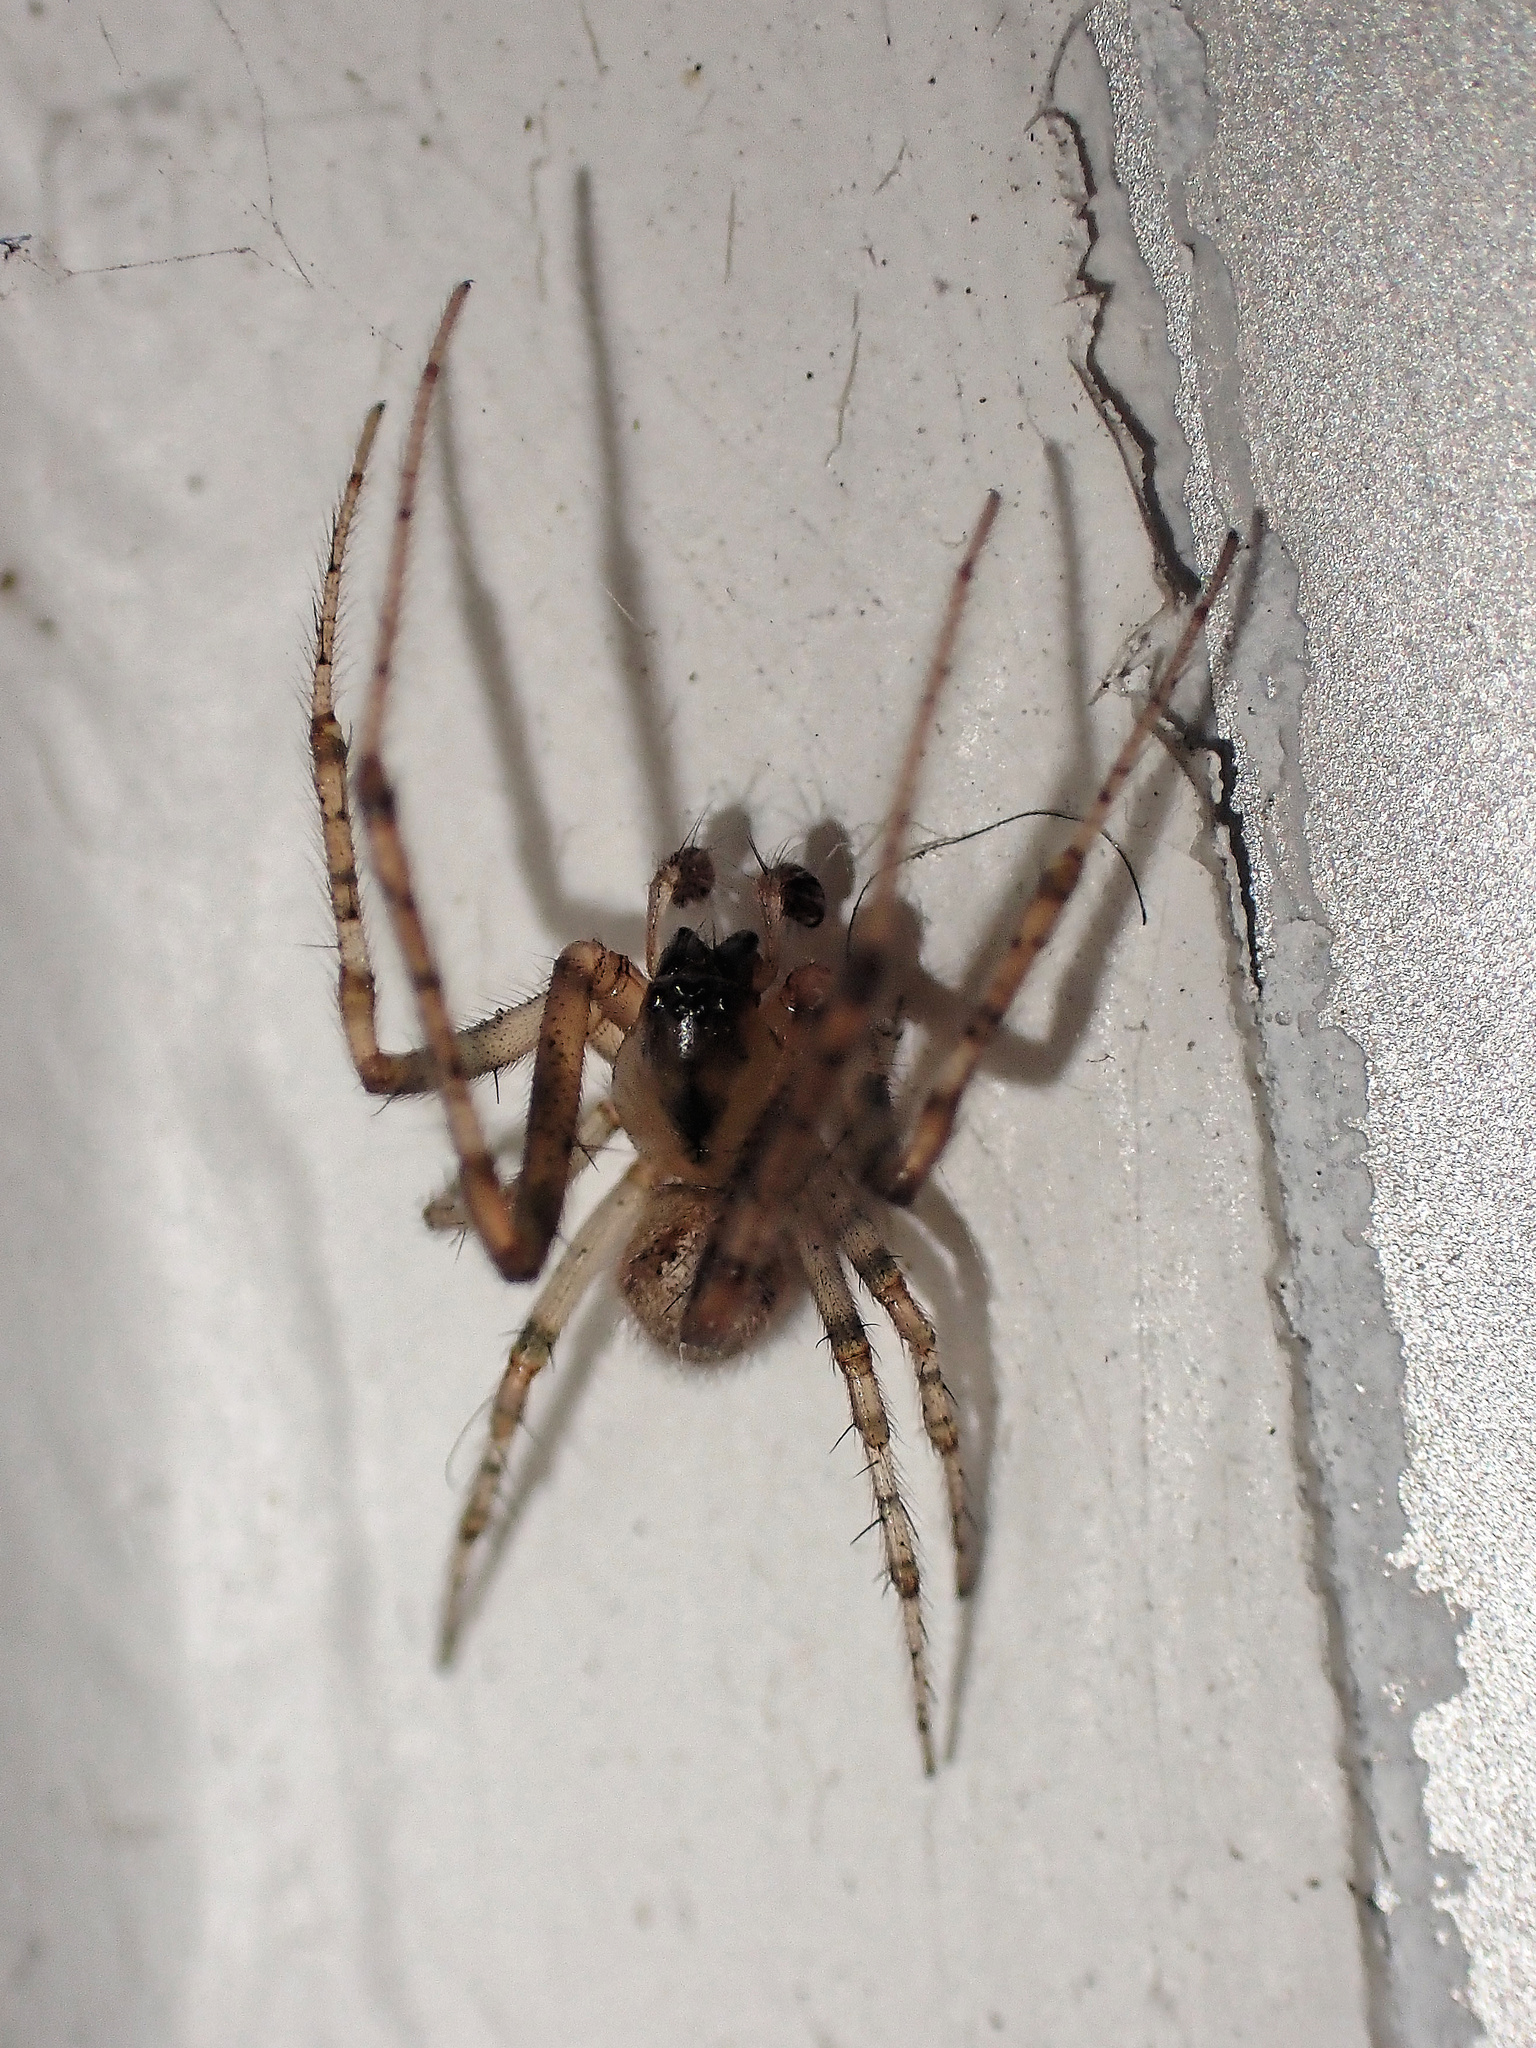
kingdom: Animalia
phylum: Arthropoda
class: Arachnida
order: Araneae
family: Araneidae
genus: Zygiella
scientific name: Zygiella x-notata
